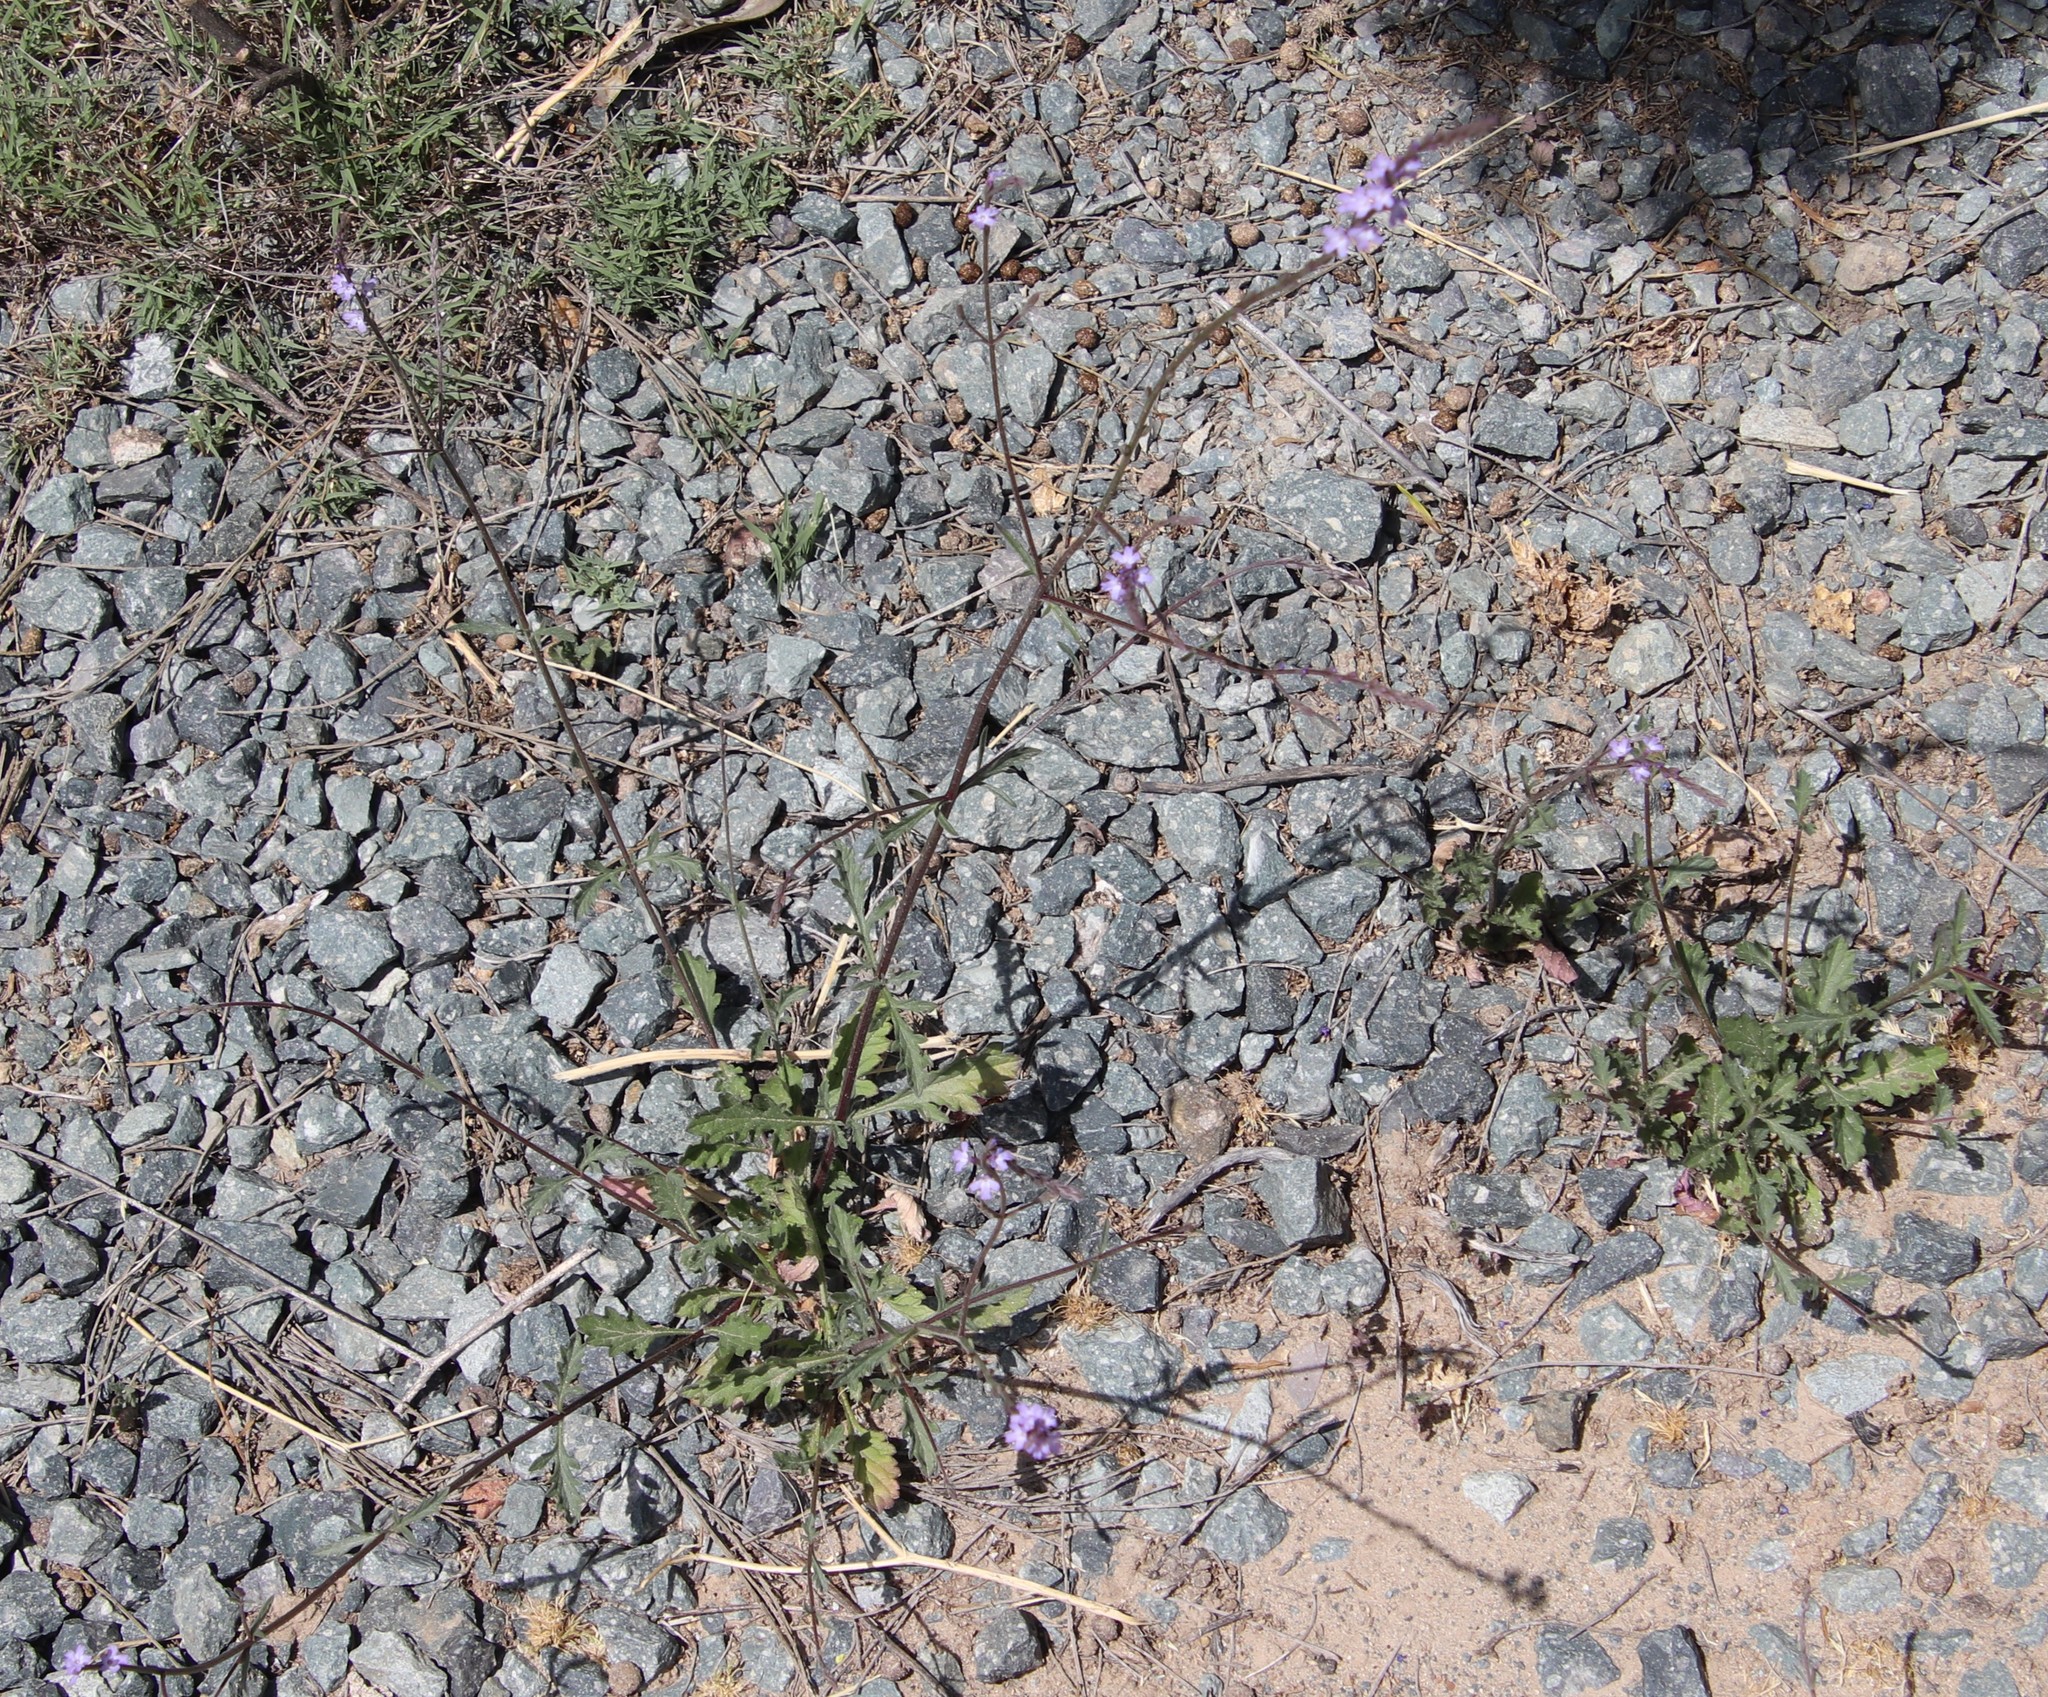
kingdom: Plantae
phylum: Tracheophyta
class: Magnoliopsida
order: Lamiales
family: Verbenaceae
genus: Verbena
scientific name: Verbena menthifolia
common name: Mint-leaf vervain
